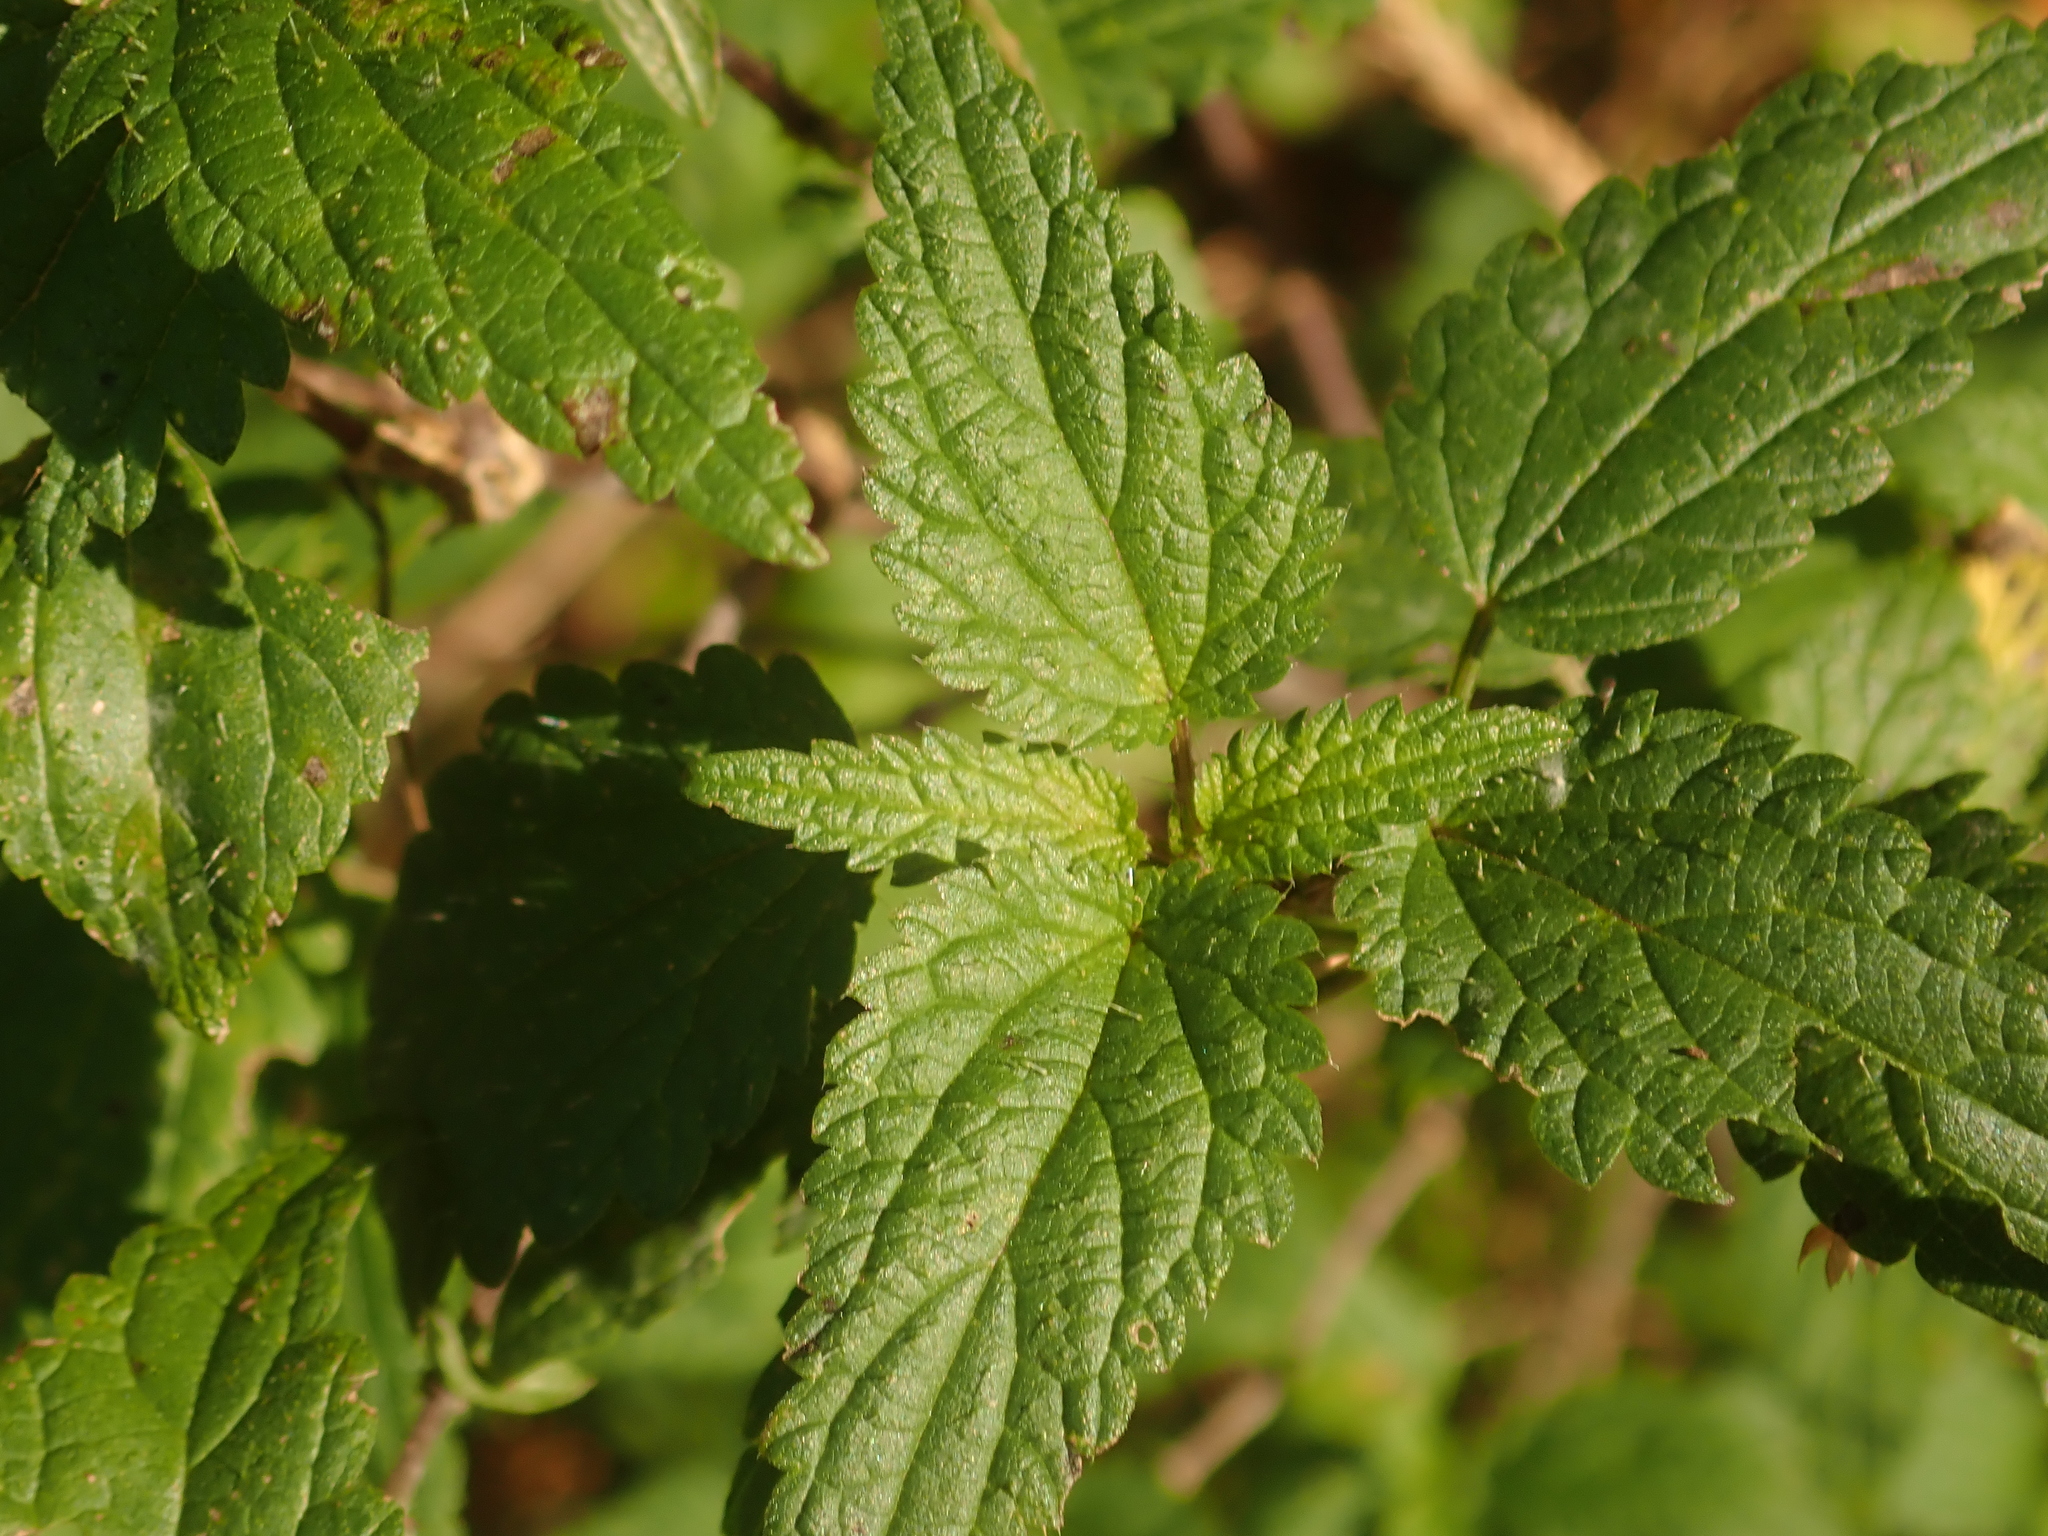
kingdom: Plantae
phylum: Tracheophyta
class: Magnoliopsida
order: Rosales
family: Urticaceae
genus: Urtica
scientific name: Urtica dioica
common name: Common nettle
